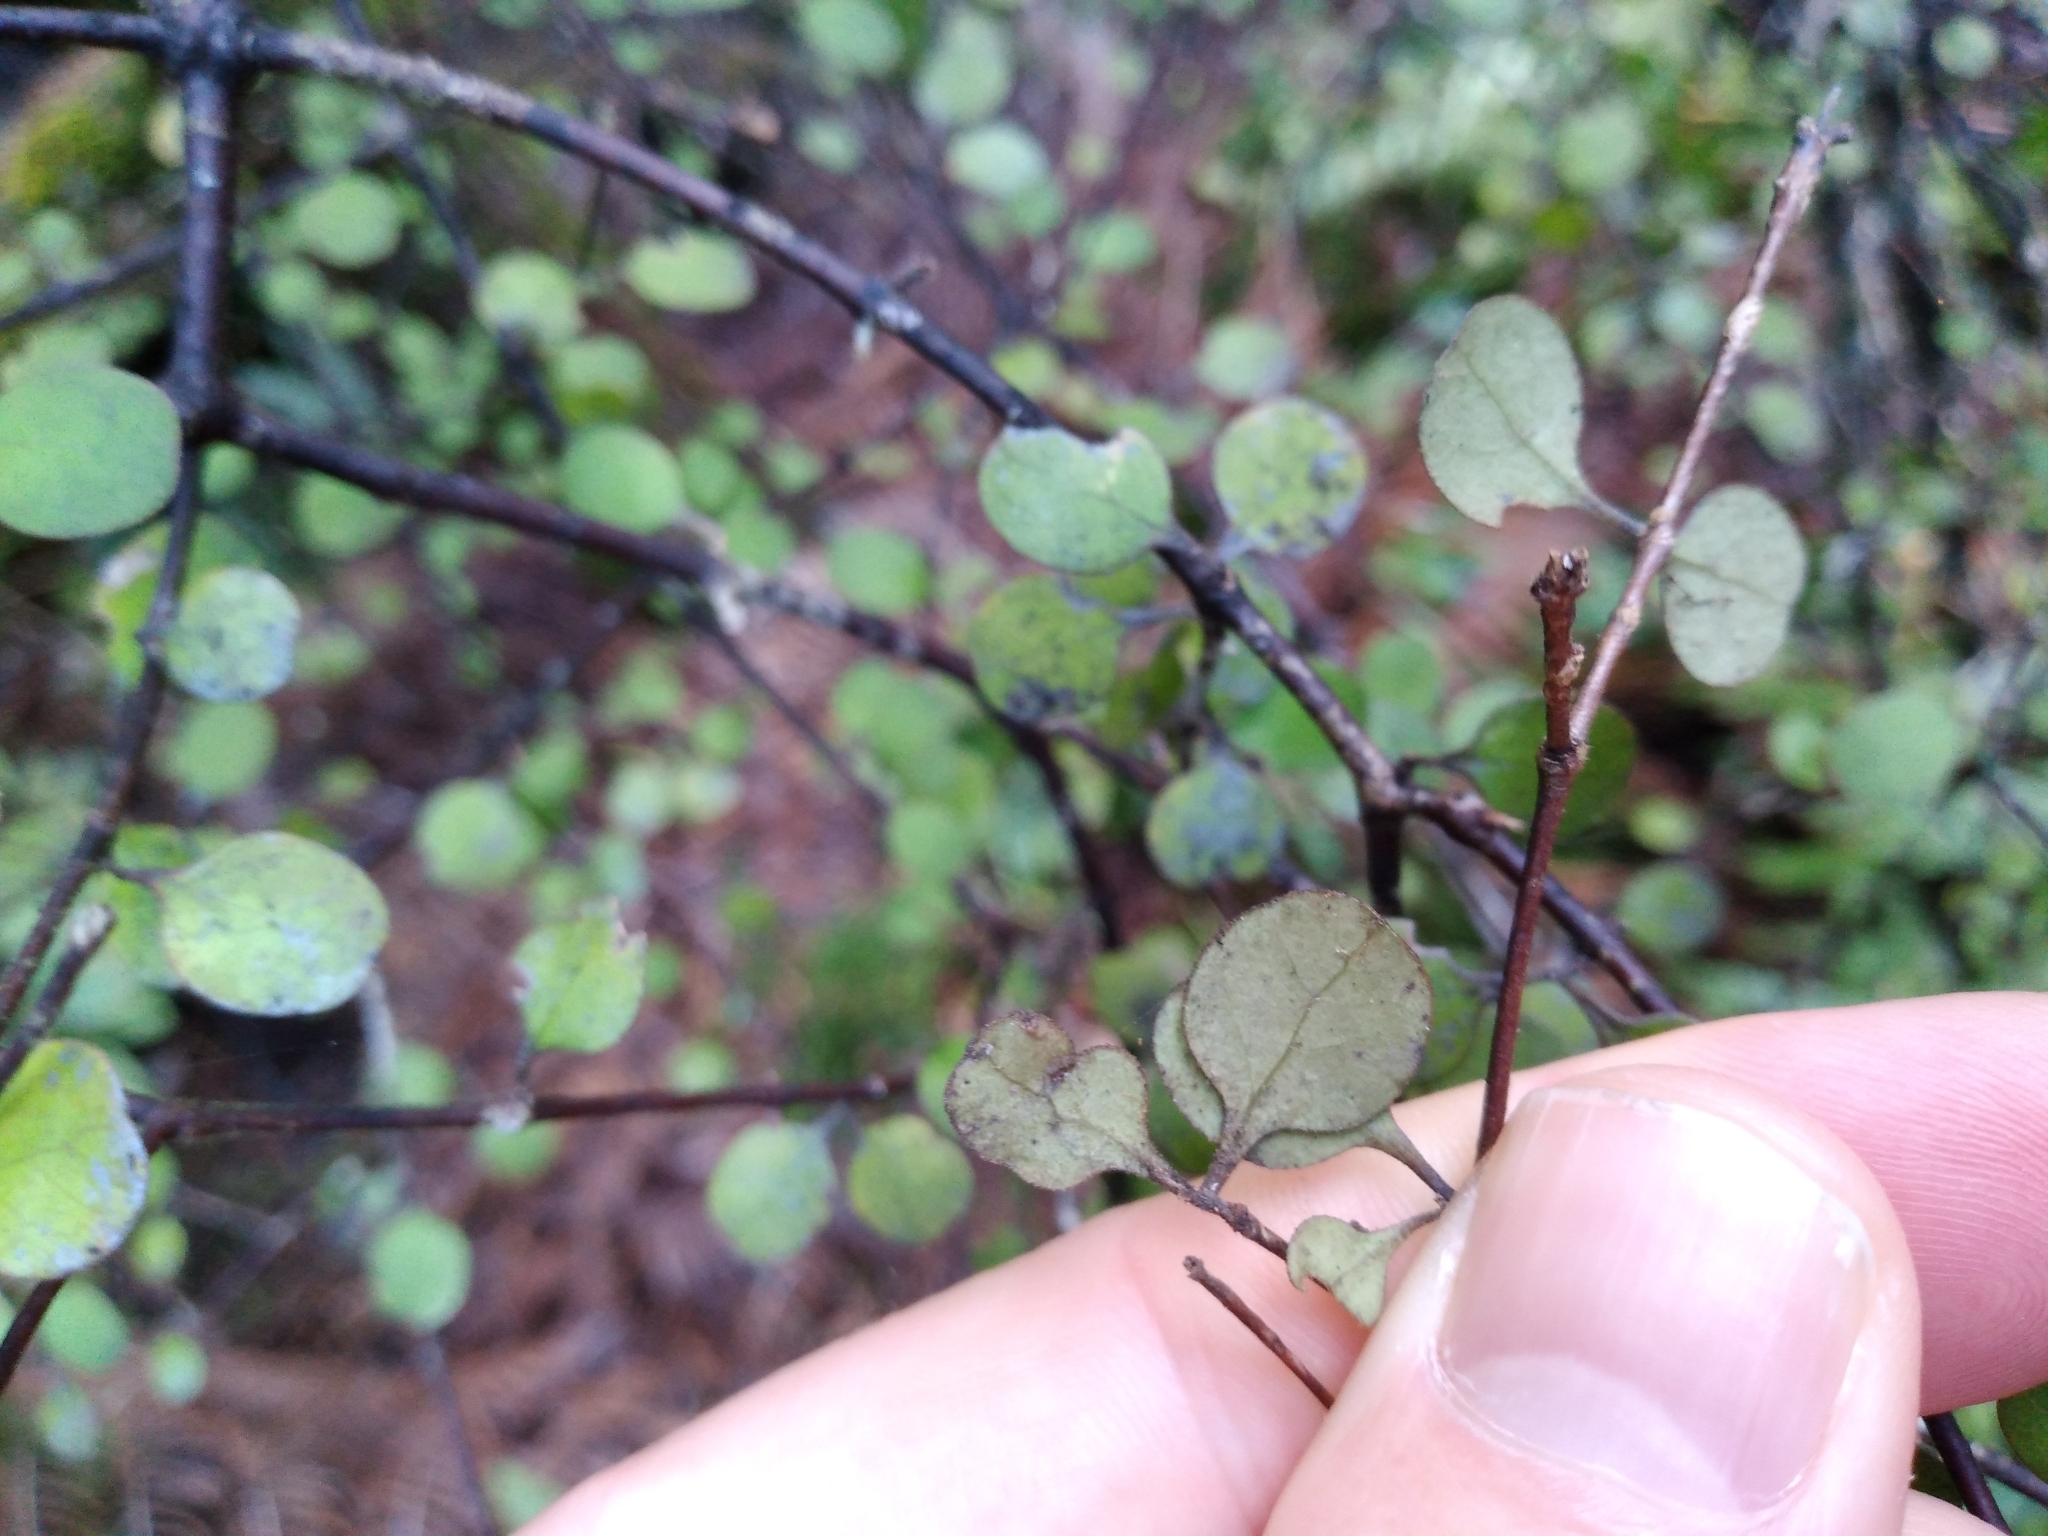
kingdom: Plantae
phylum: Tracheophyta
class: Magnoliopsida
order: Gentianales
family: Rubiaceae
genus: Coprosma
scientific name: Coprosma crassifolia
